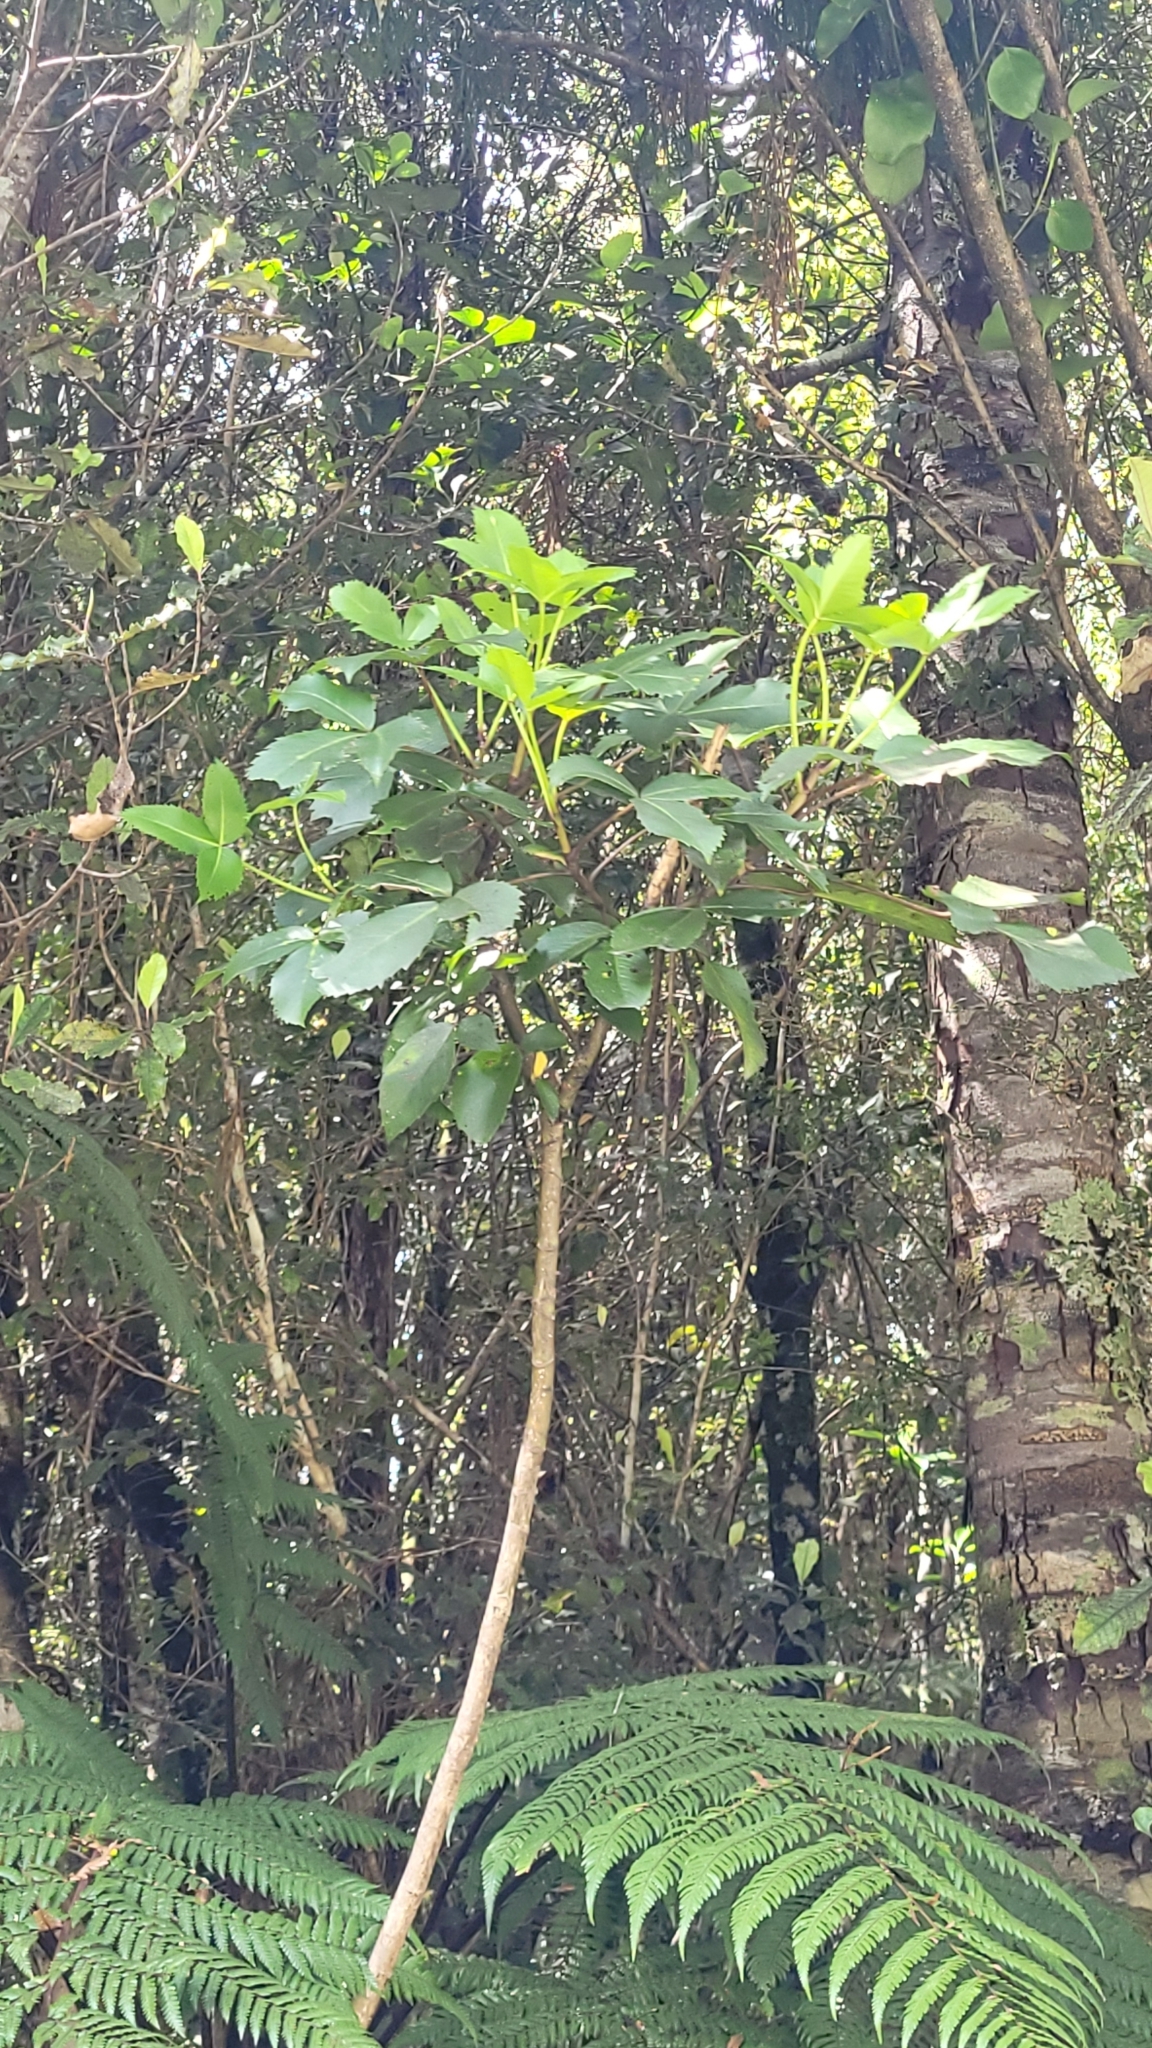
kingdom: Plantae
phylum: Tracheophyta
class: Magnoliopsida
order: Apiales
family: Araliaceae
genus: Neopanax
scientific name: Neopanax colensoi
